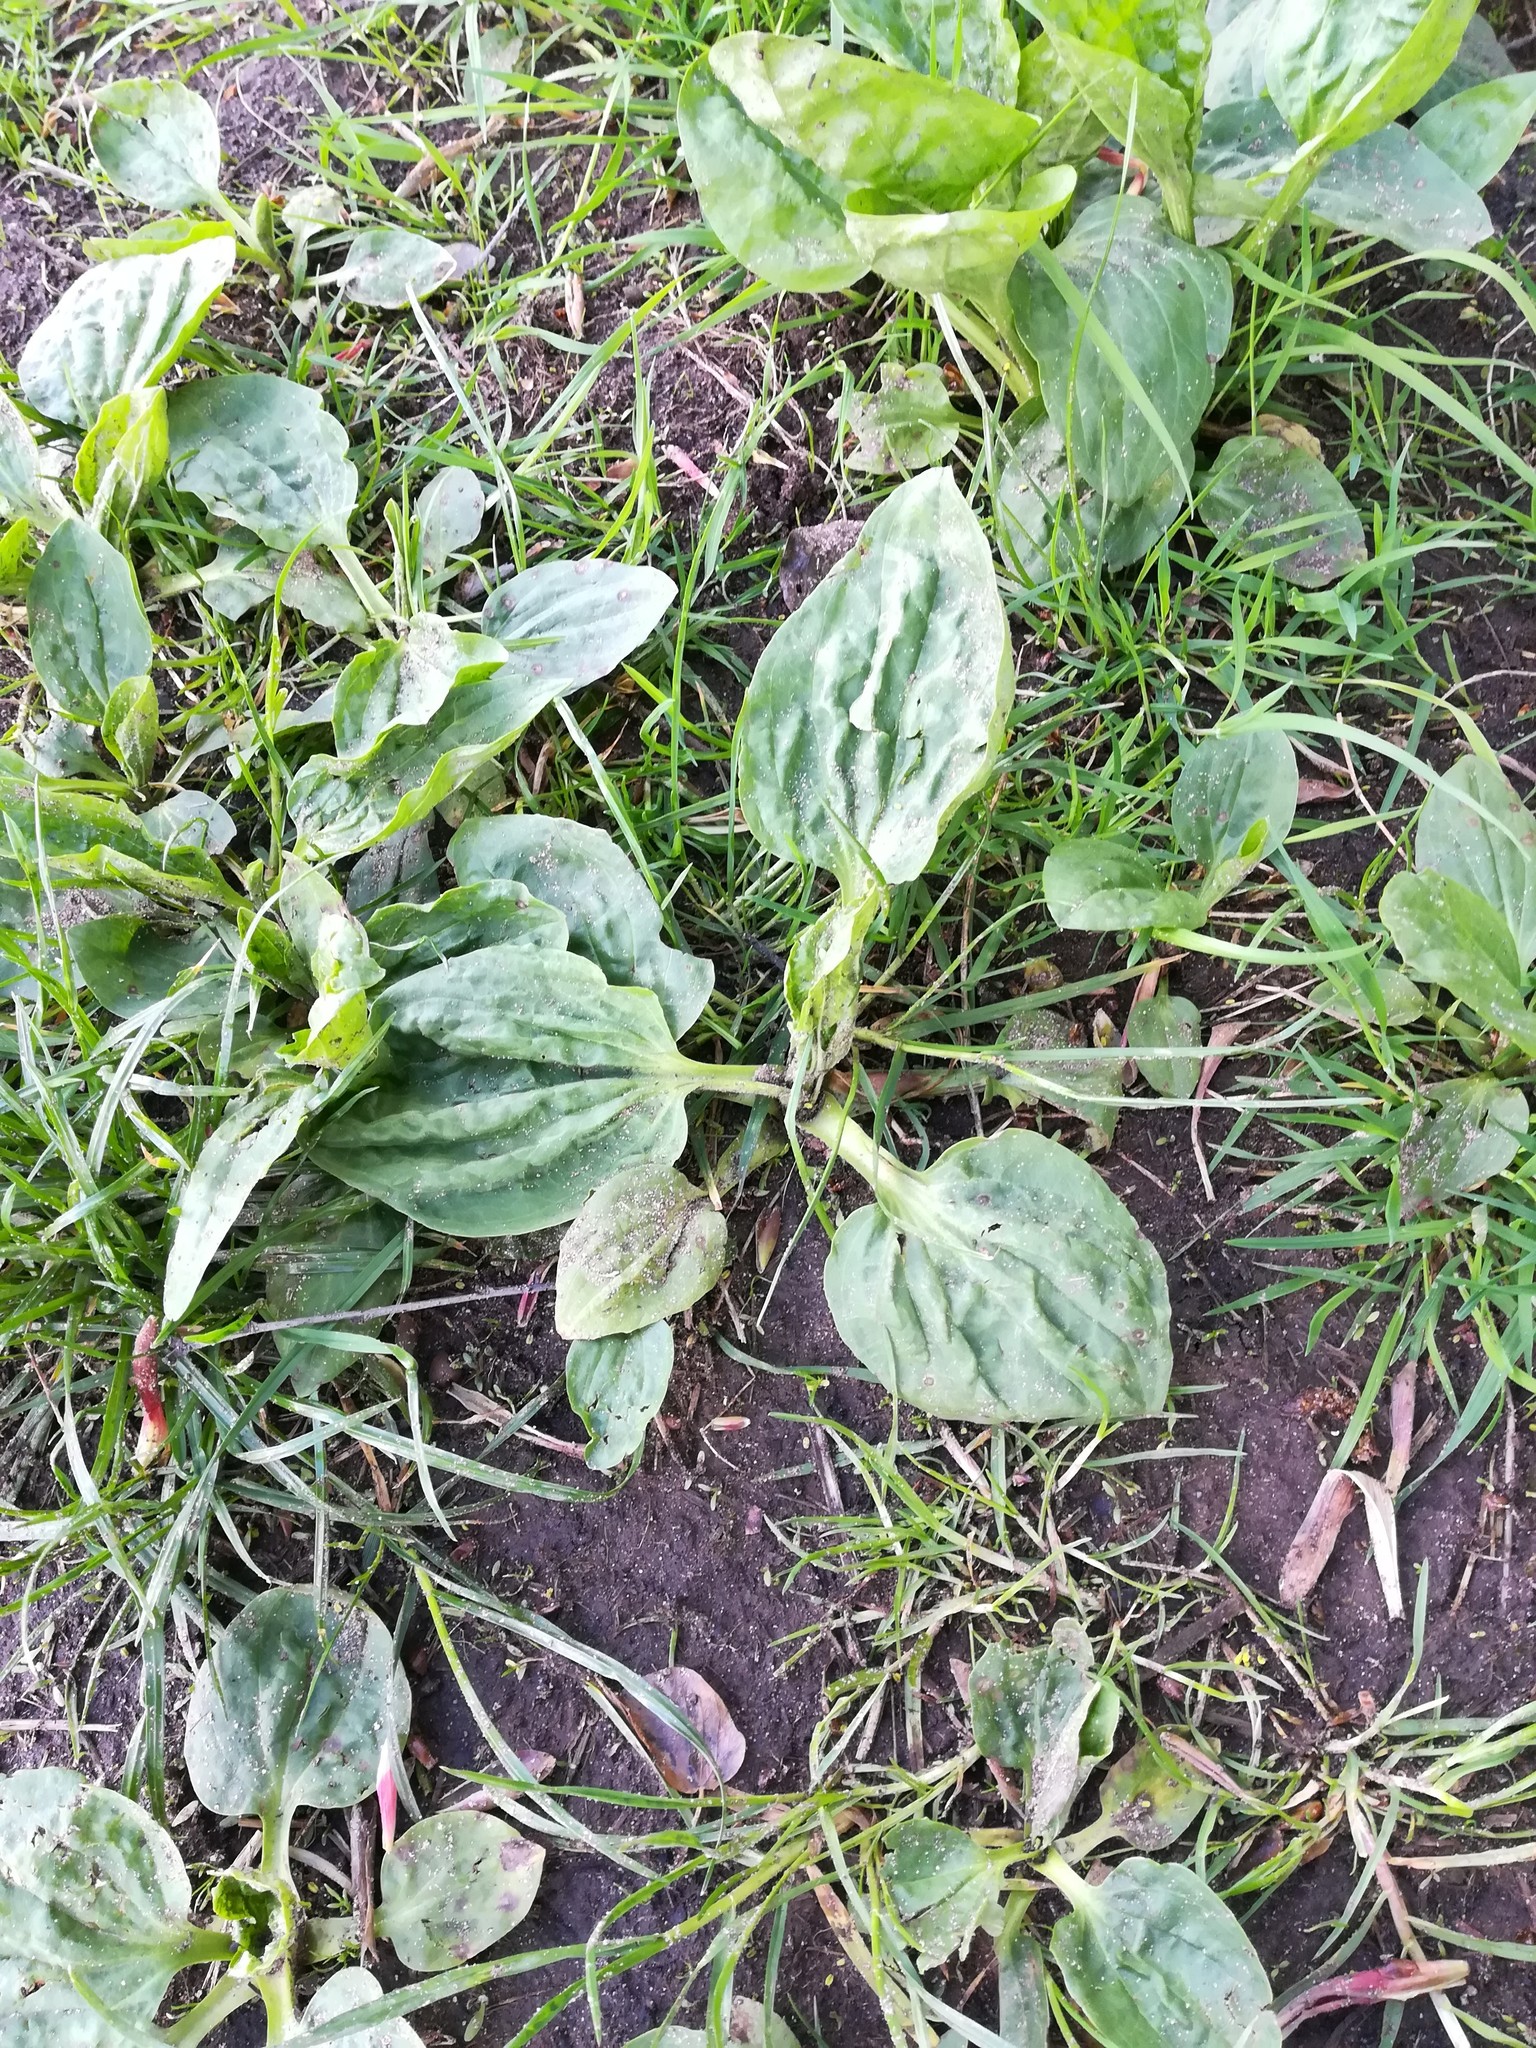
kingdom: Plantae
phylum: Tracheophyta
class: Magnoliopsida
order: Lamiales
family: Plantaginaceae
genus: Plantago
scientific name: Plantago major
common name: Common plantain
